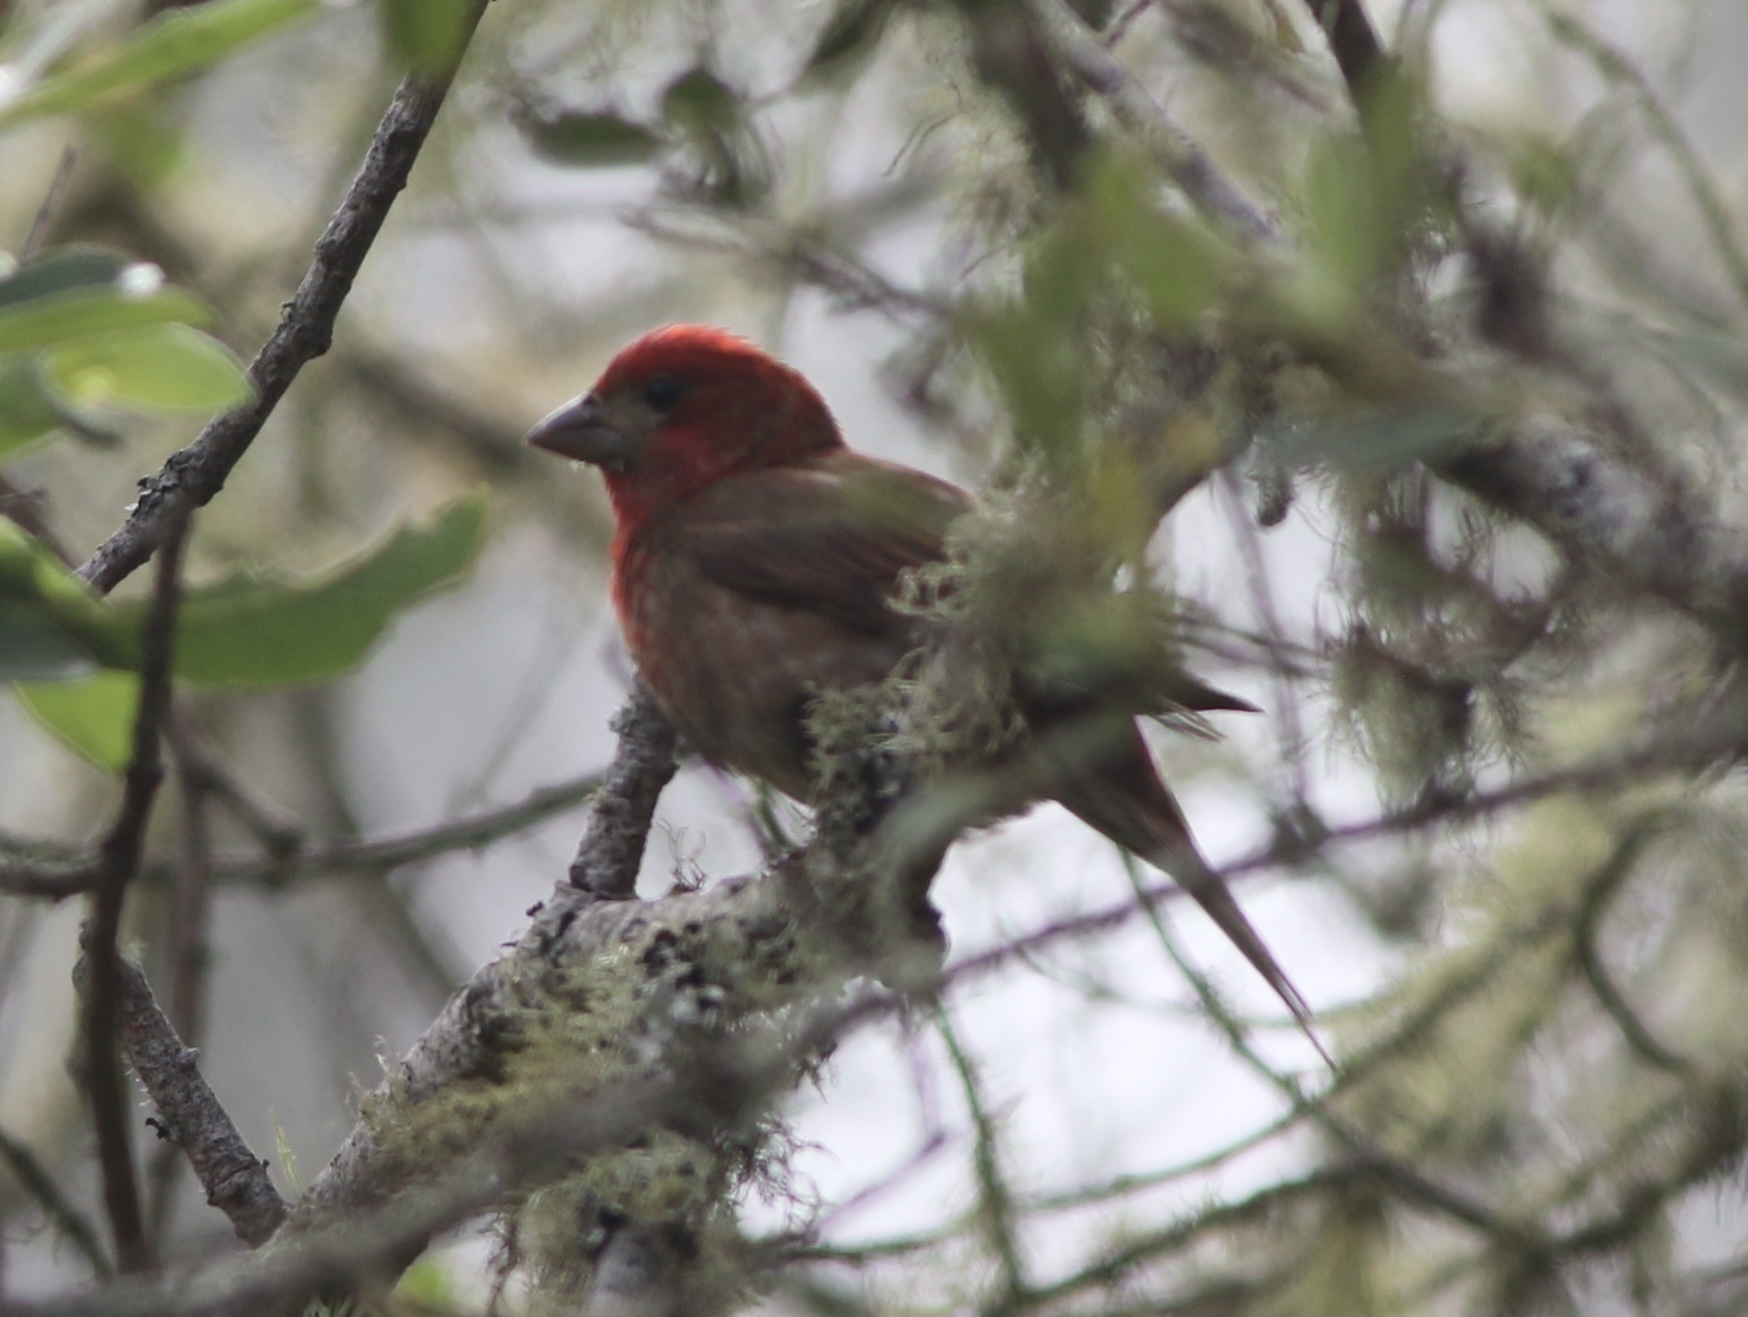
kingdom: Animalia
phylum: Chordata
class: Aves
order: Passeriformes
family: Fringillidae
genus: Haemorhous
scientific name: Haemorhous purpureus
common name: Purple finch
